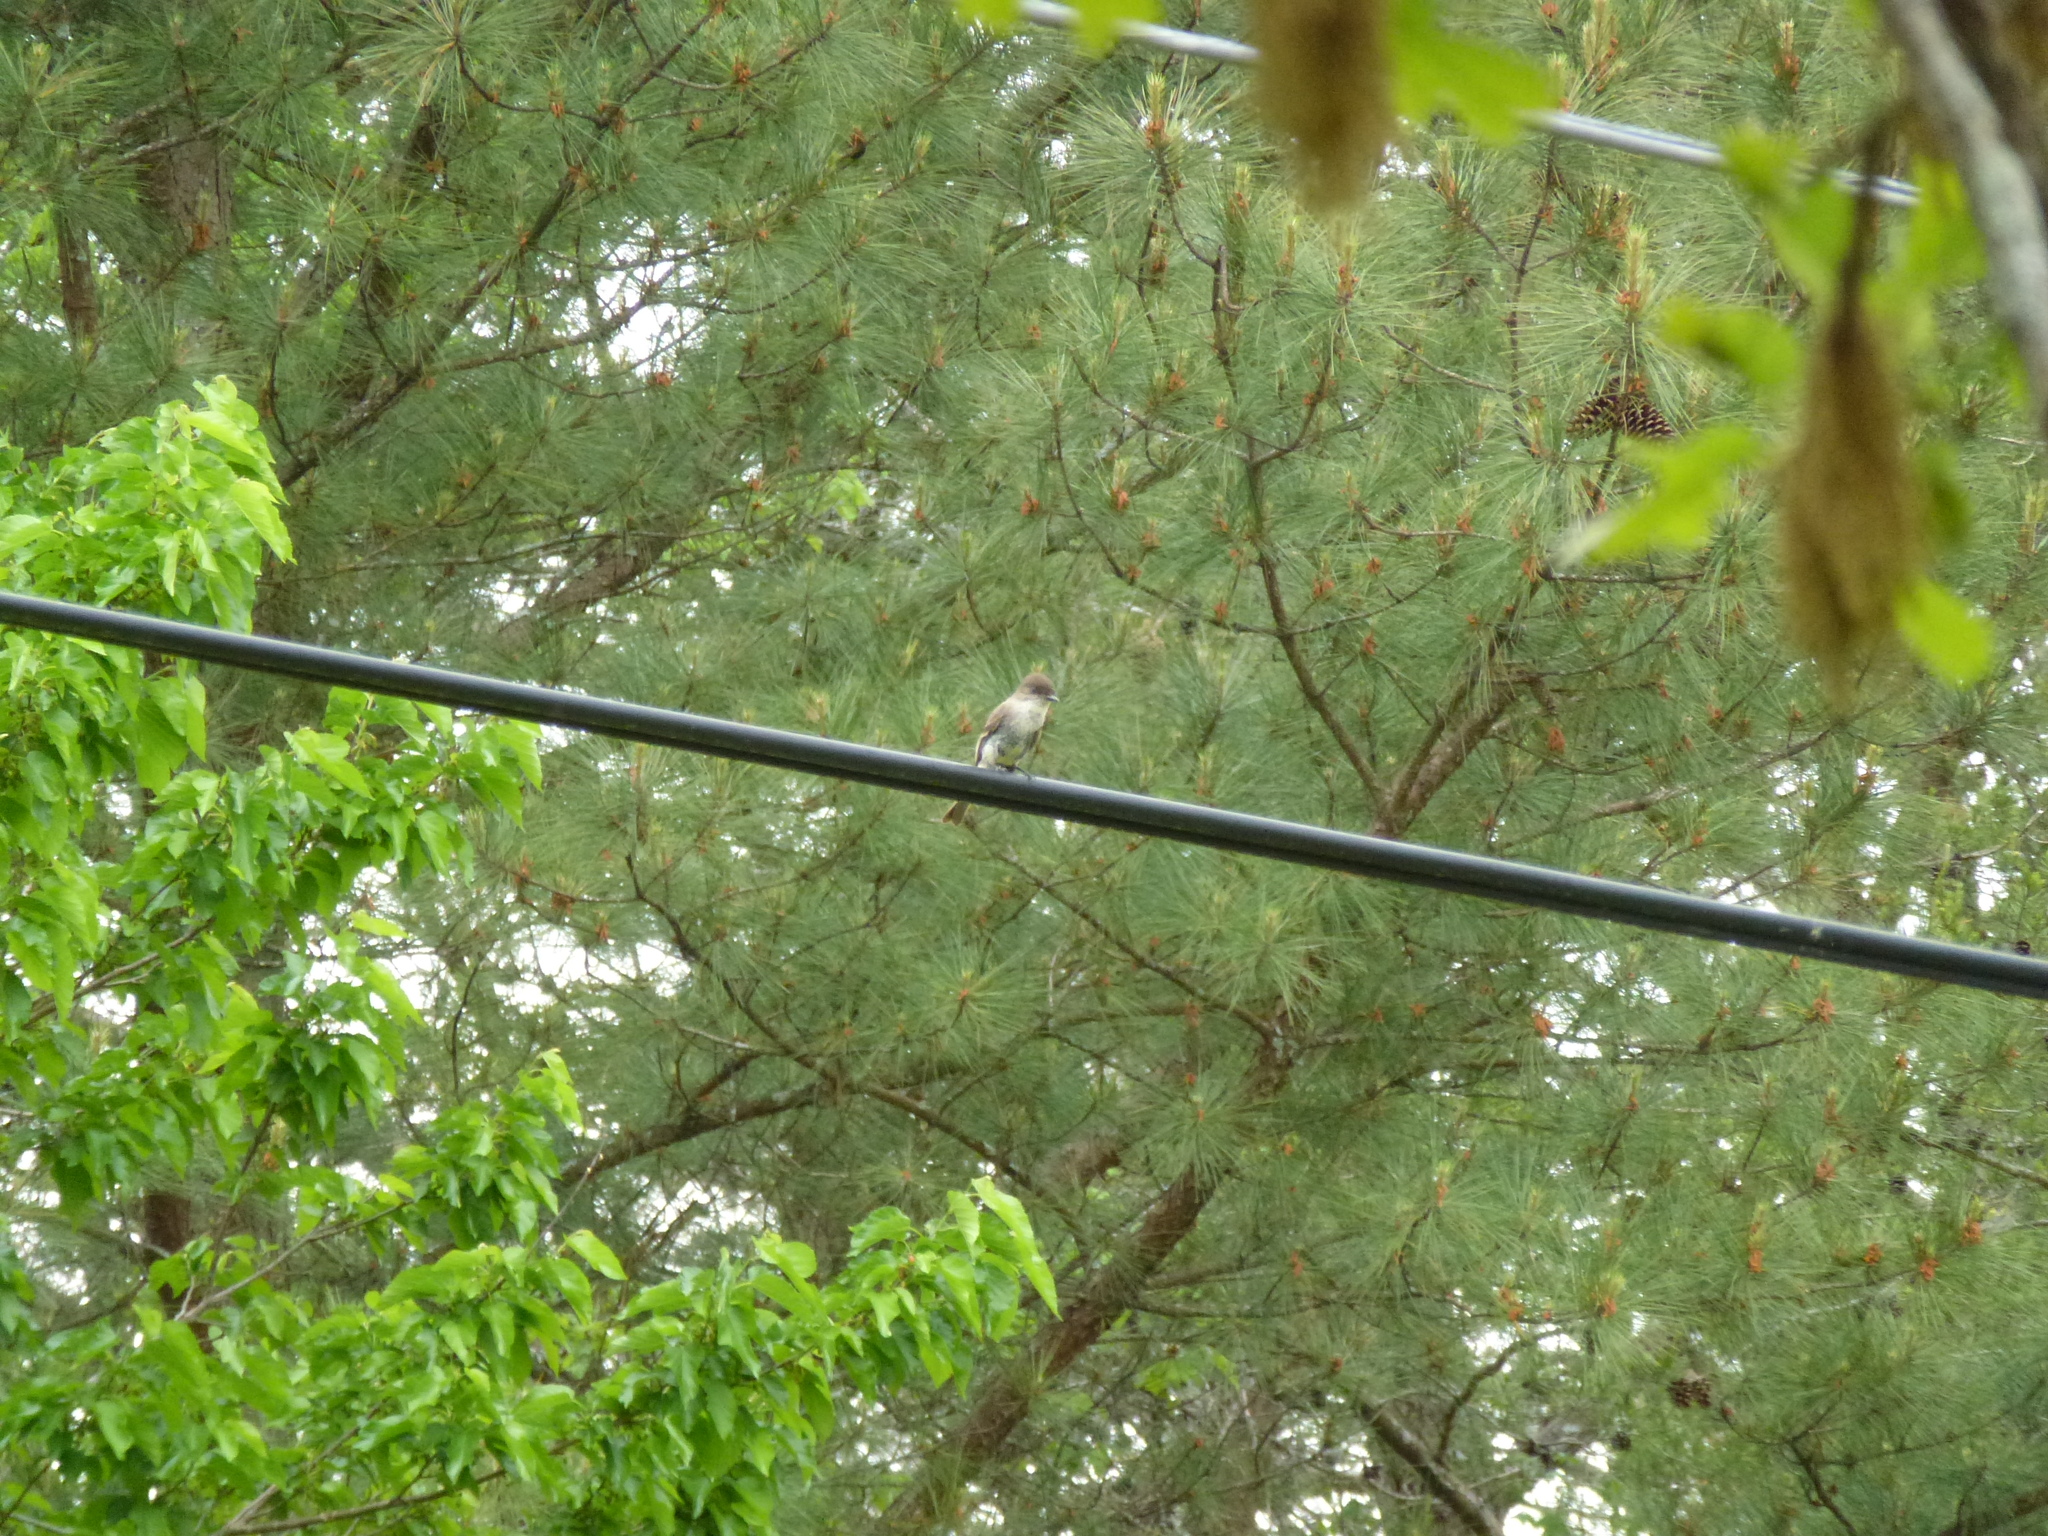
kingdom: Animalia
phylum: Chordata
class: Aves
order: Passeriformes
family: Tyrannidae
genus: Sayornis
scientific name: Sayornis phoebe
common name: Eastern phoebe
